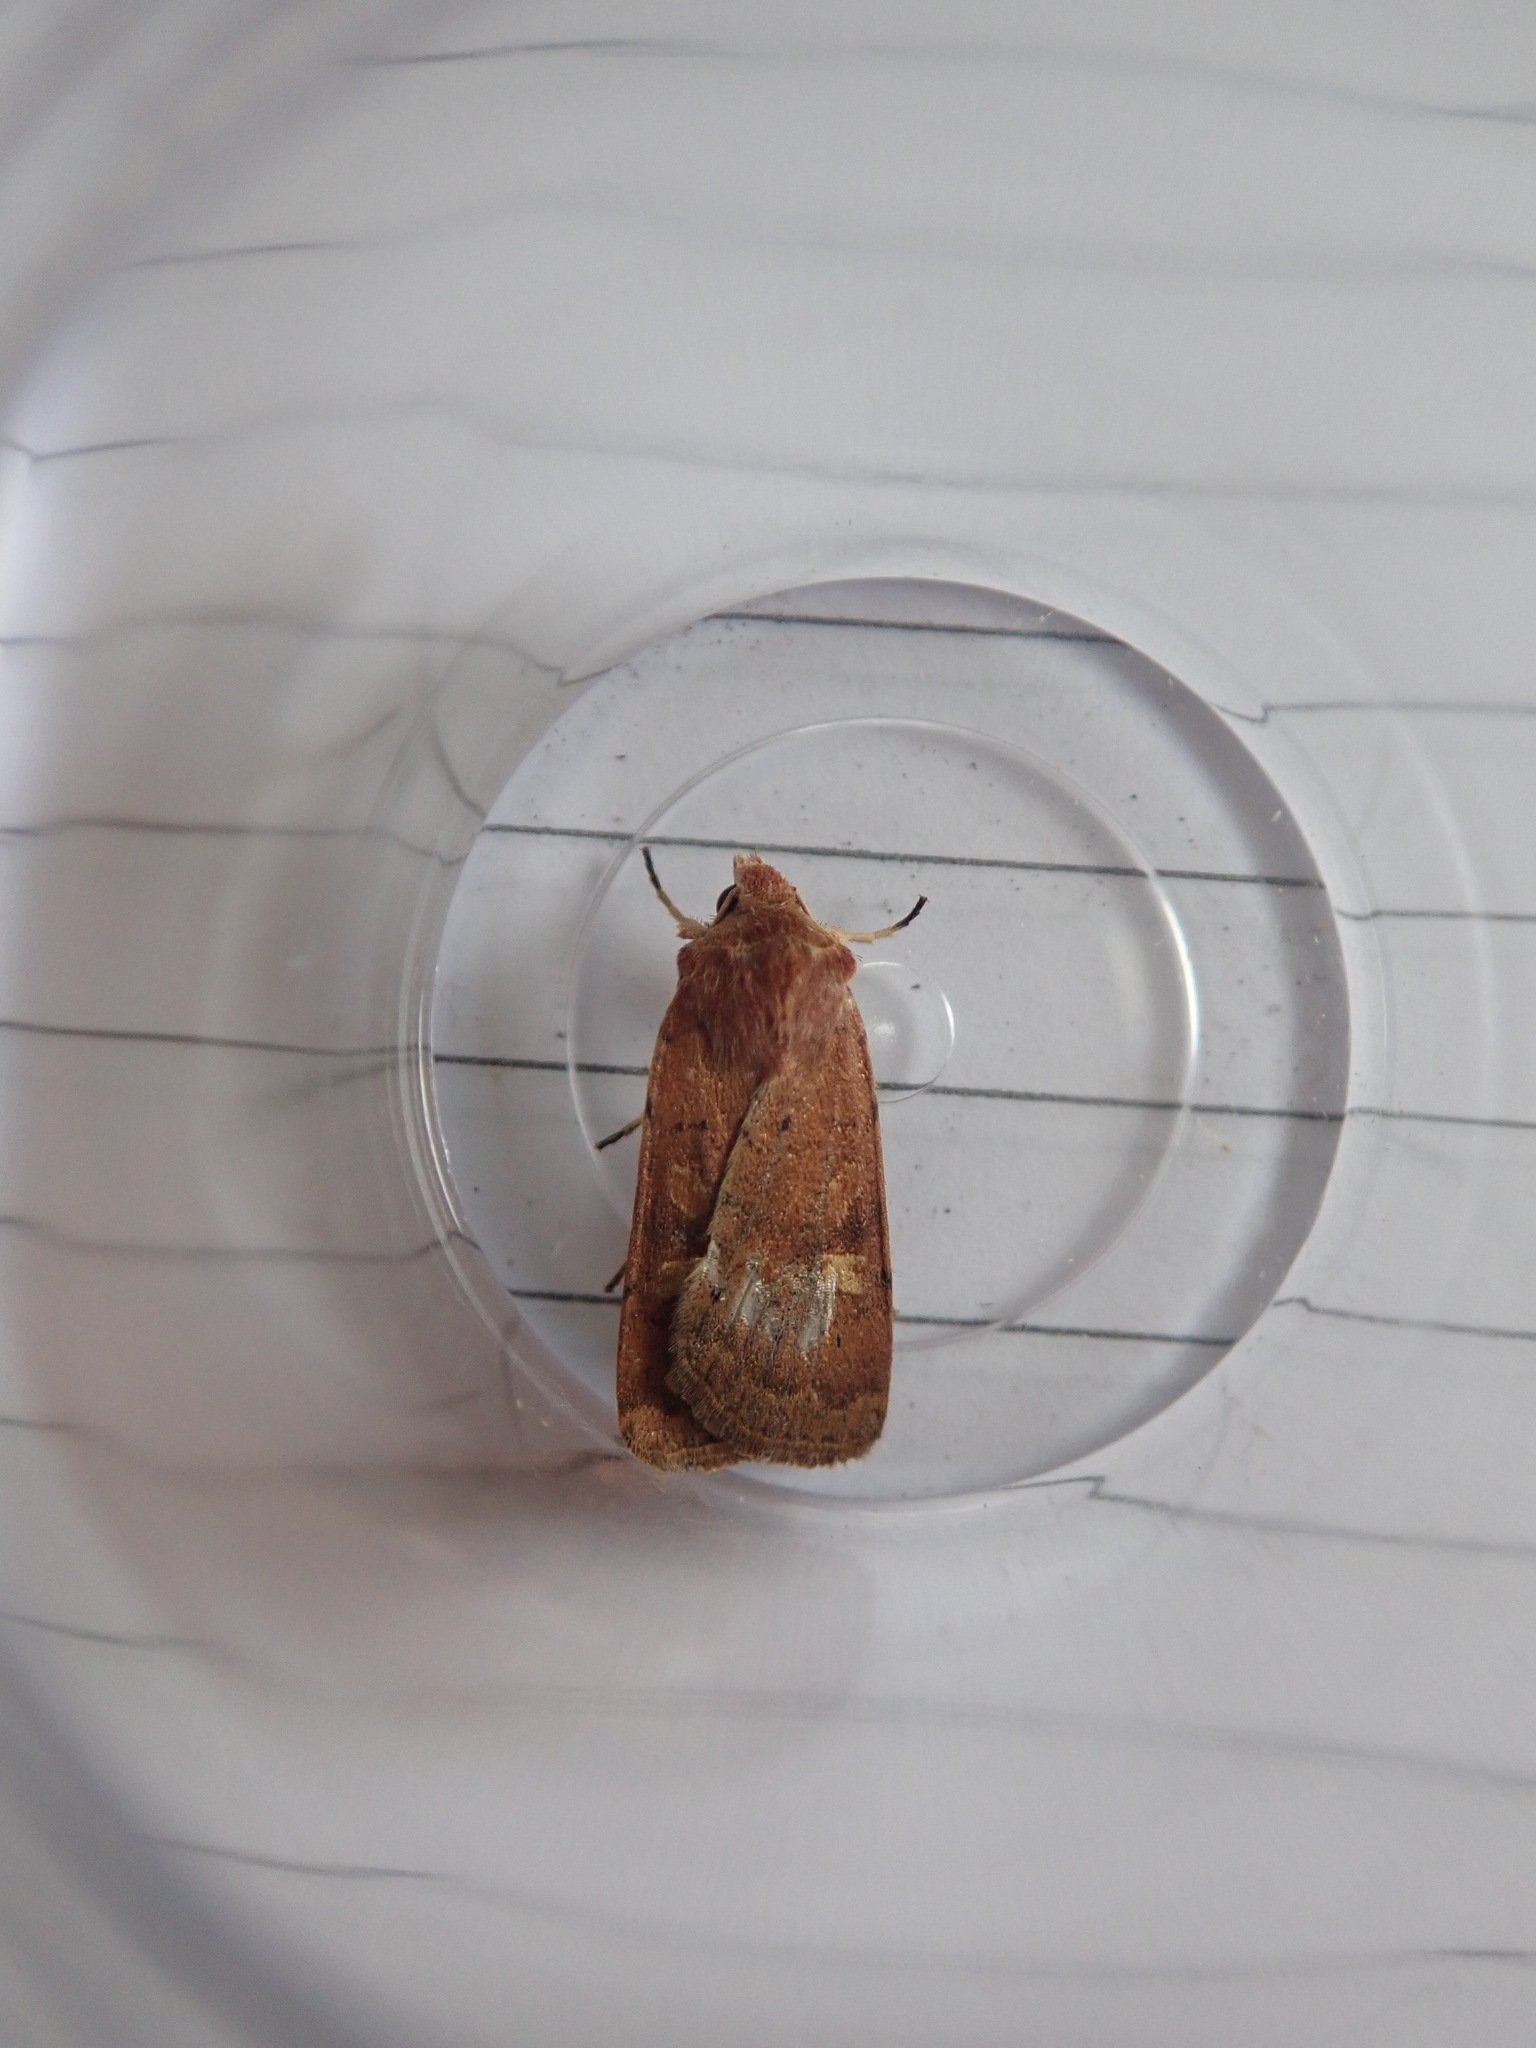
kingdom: Animalia
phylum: Arthropoda
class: Insecta
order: Lepidoptera
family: Noctuidae
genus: Xestia
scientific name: Xestia xanthographa
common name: Square-spot rustic
